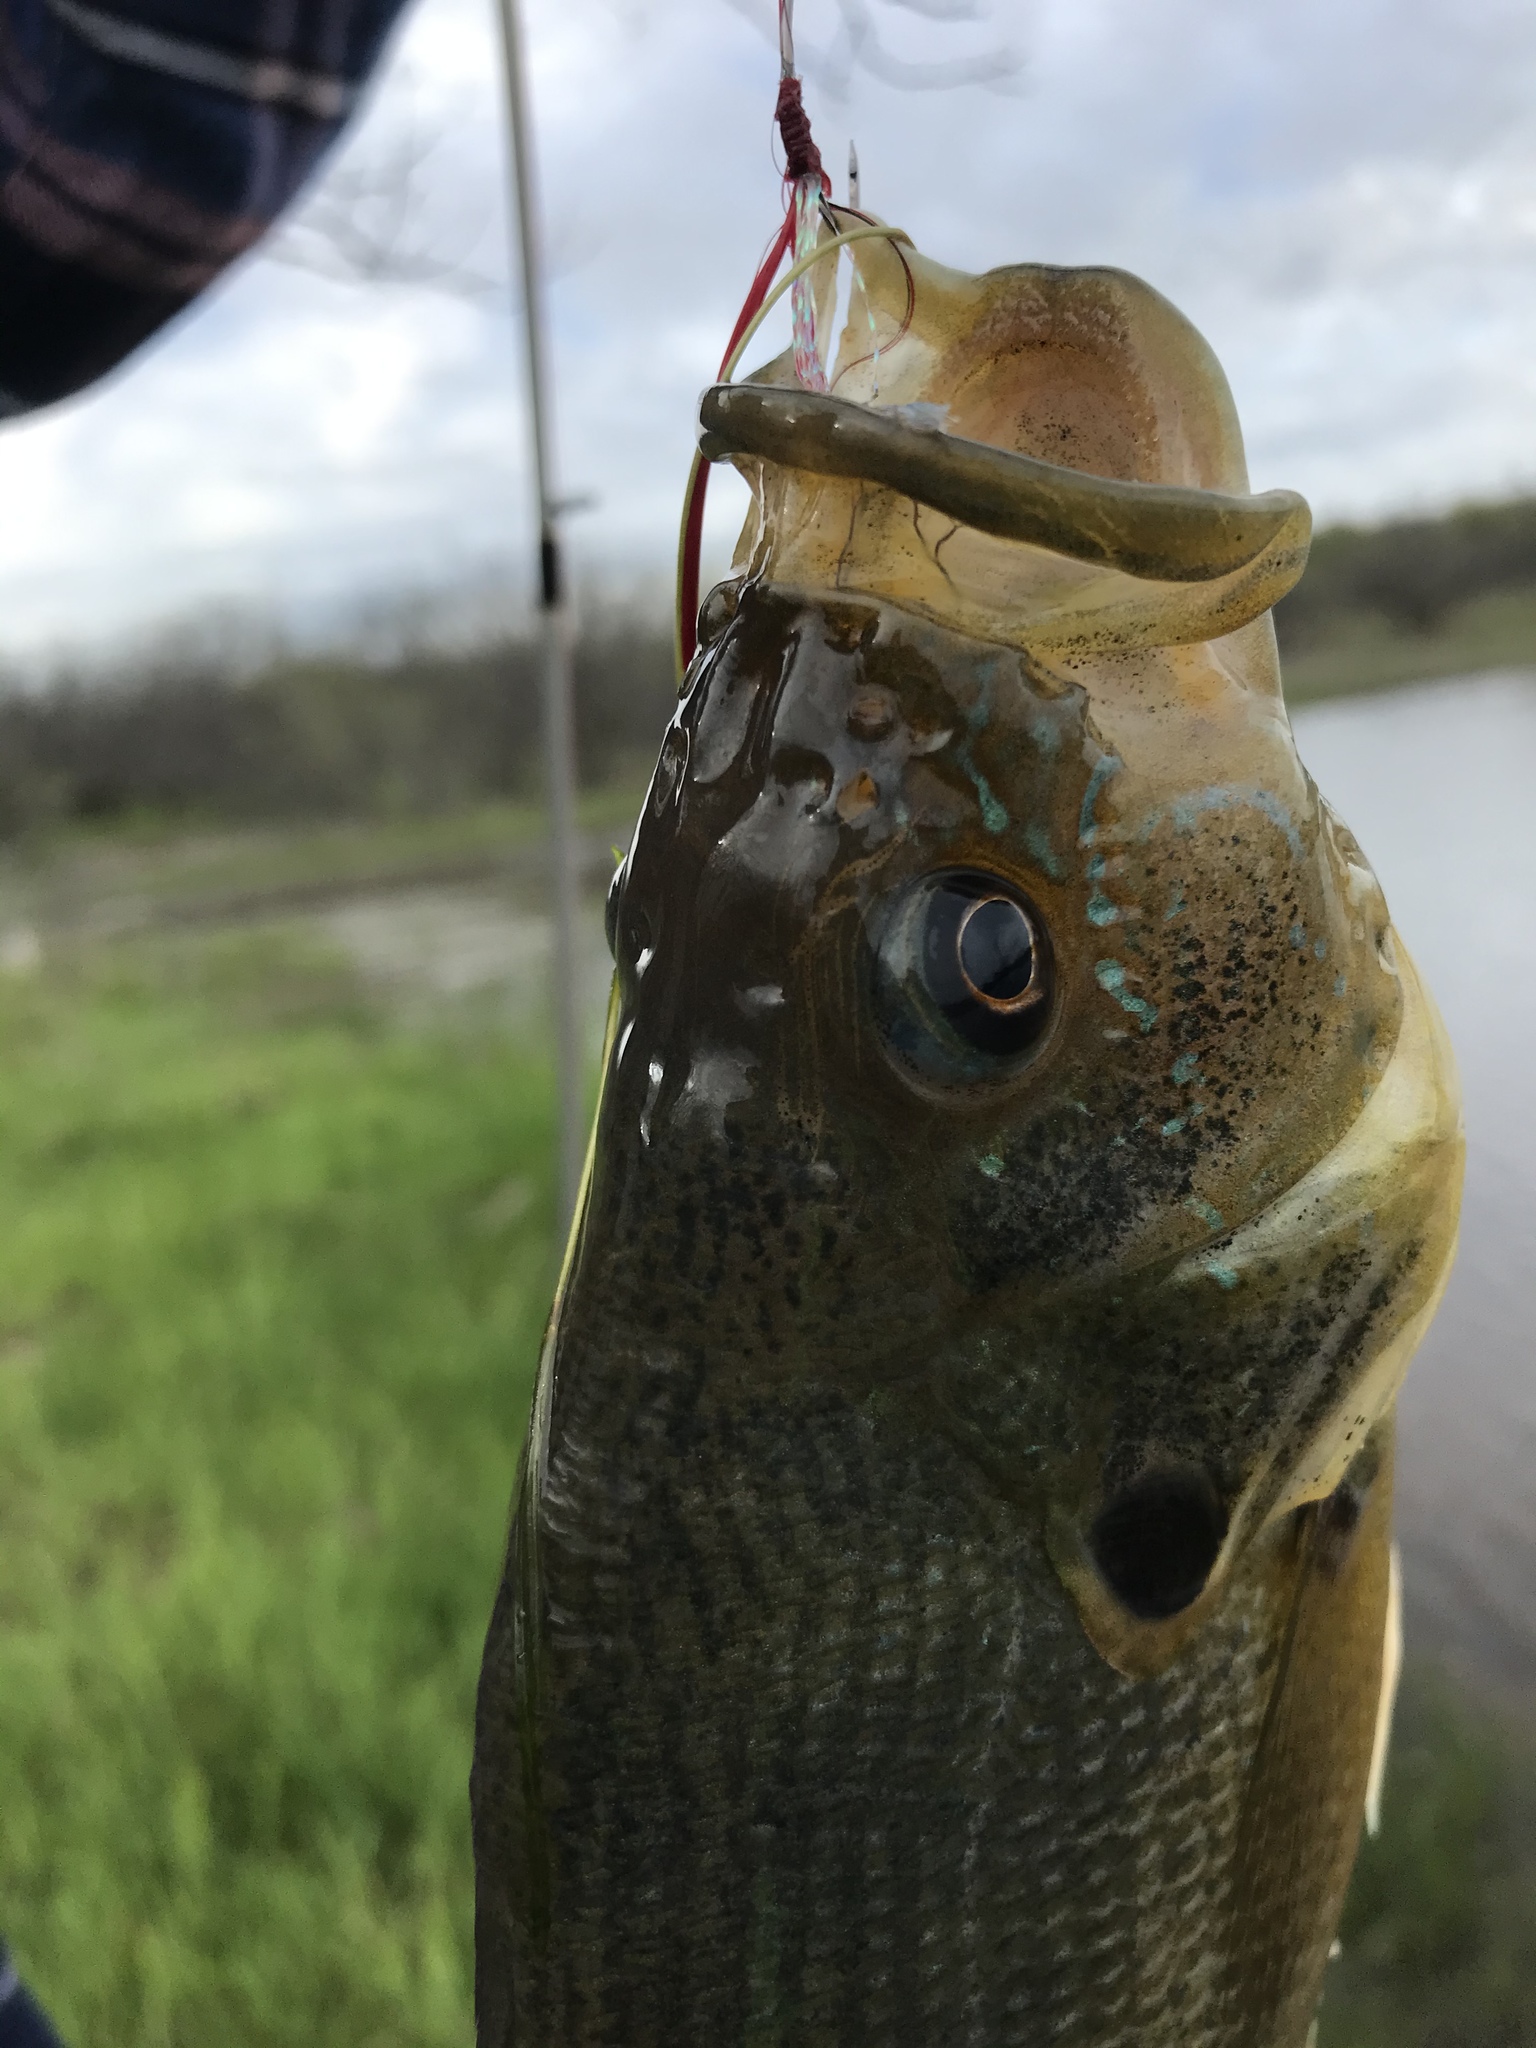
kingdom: Animalia
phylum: Chordata
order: Perciformes
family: Centrarchidae
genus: Lepomis
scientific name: Lepomis cyanellus
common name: Green sunfish
